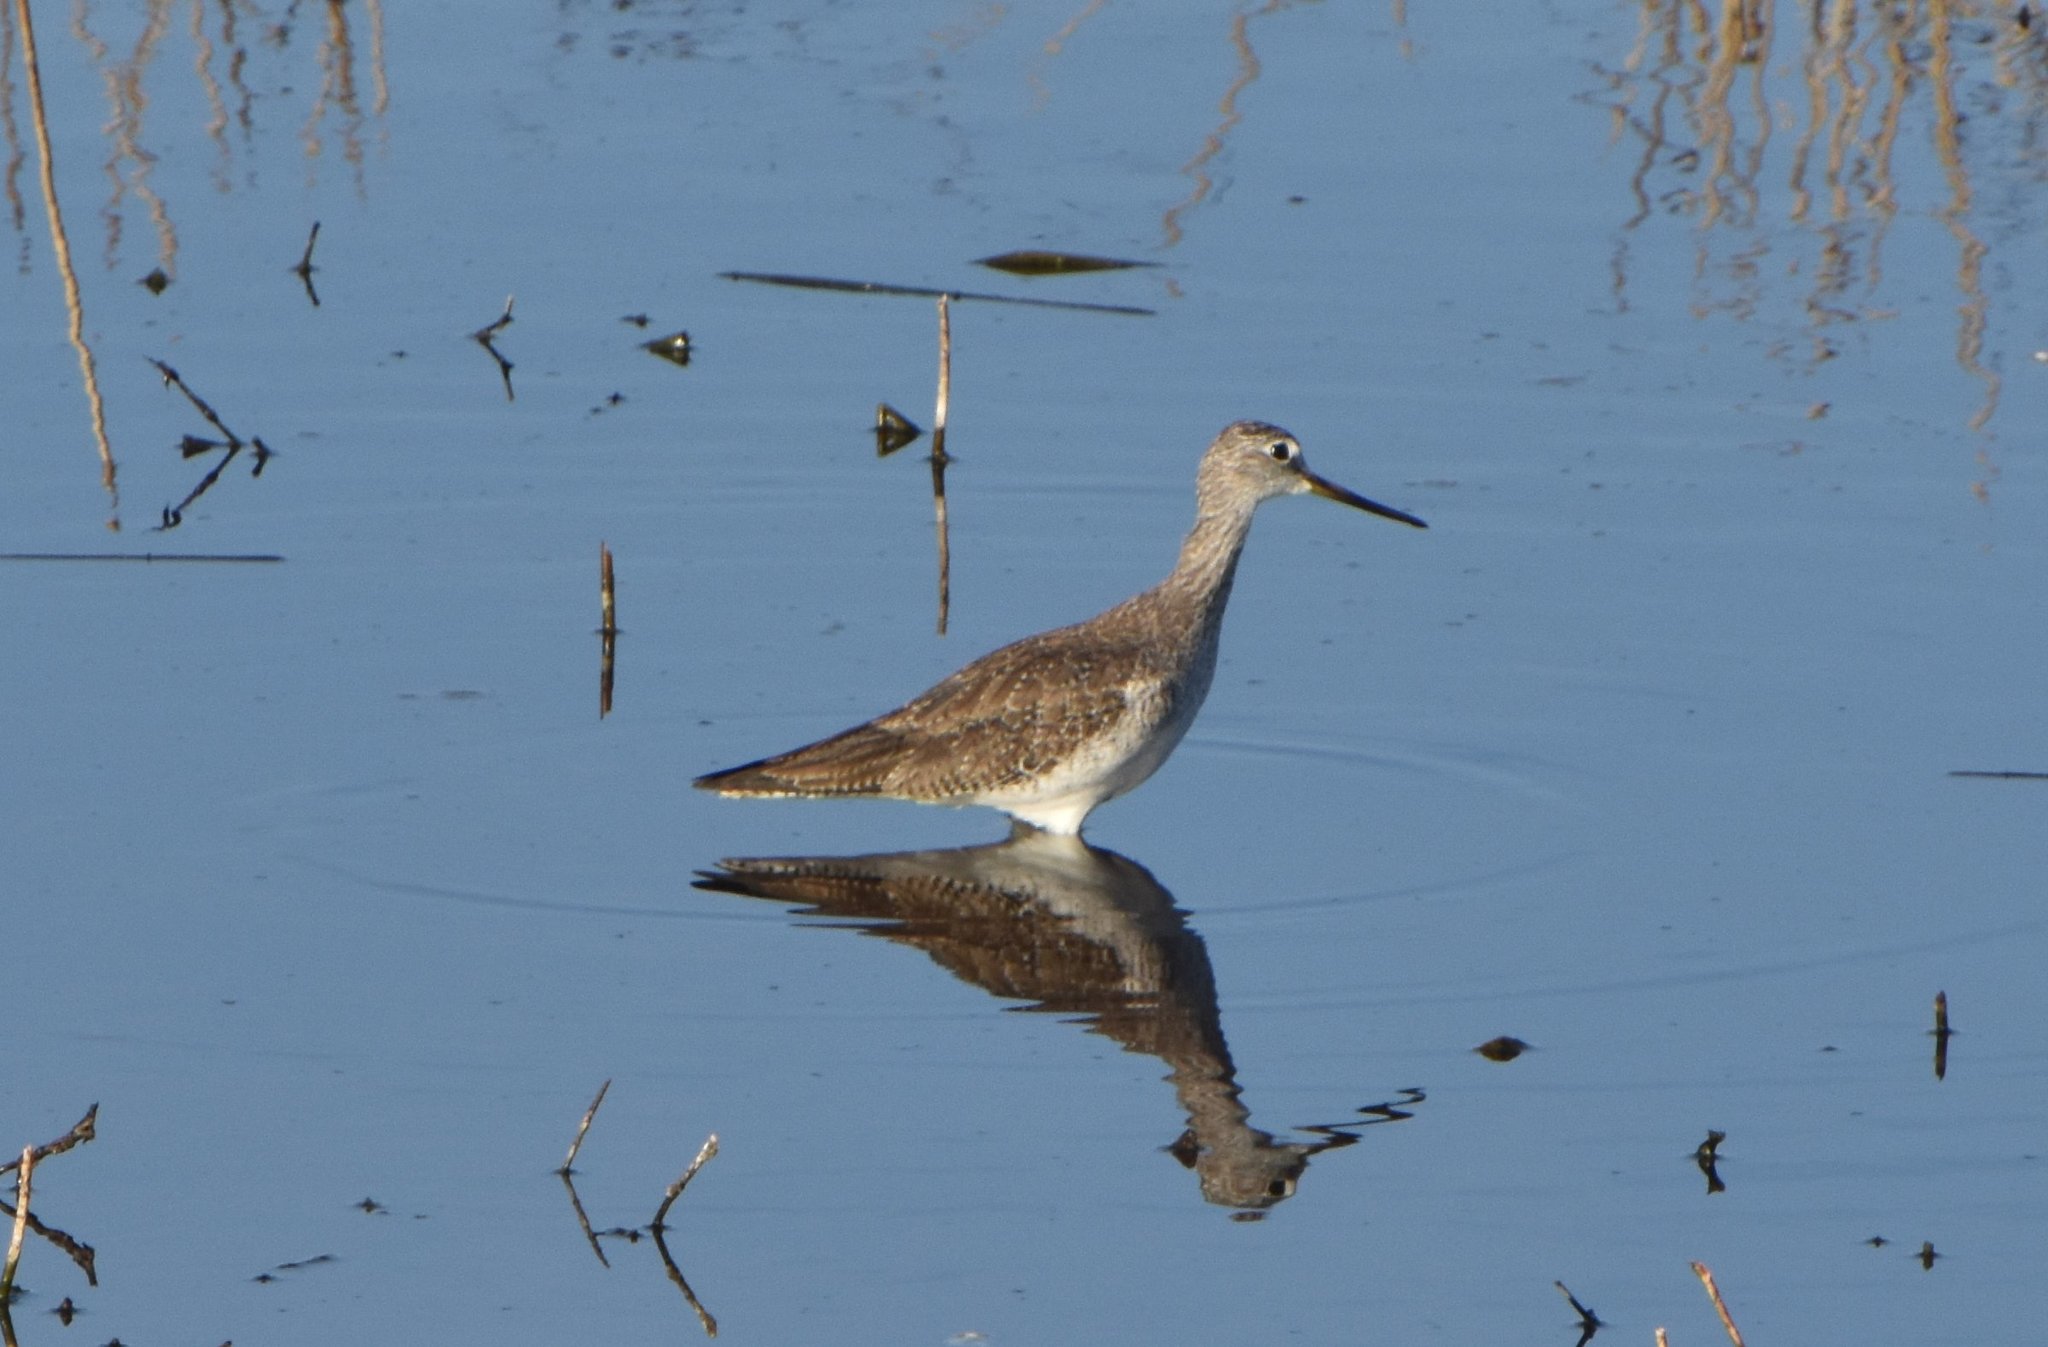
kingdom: Animalia
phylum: Chordata
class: Aves
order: Charadriiformes
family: Scolopacidae
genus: Tringa
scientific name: Tringa melanoleuca
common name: Greater yellowlegs
